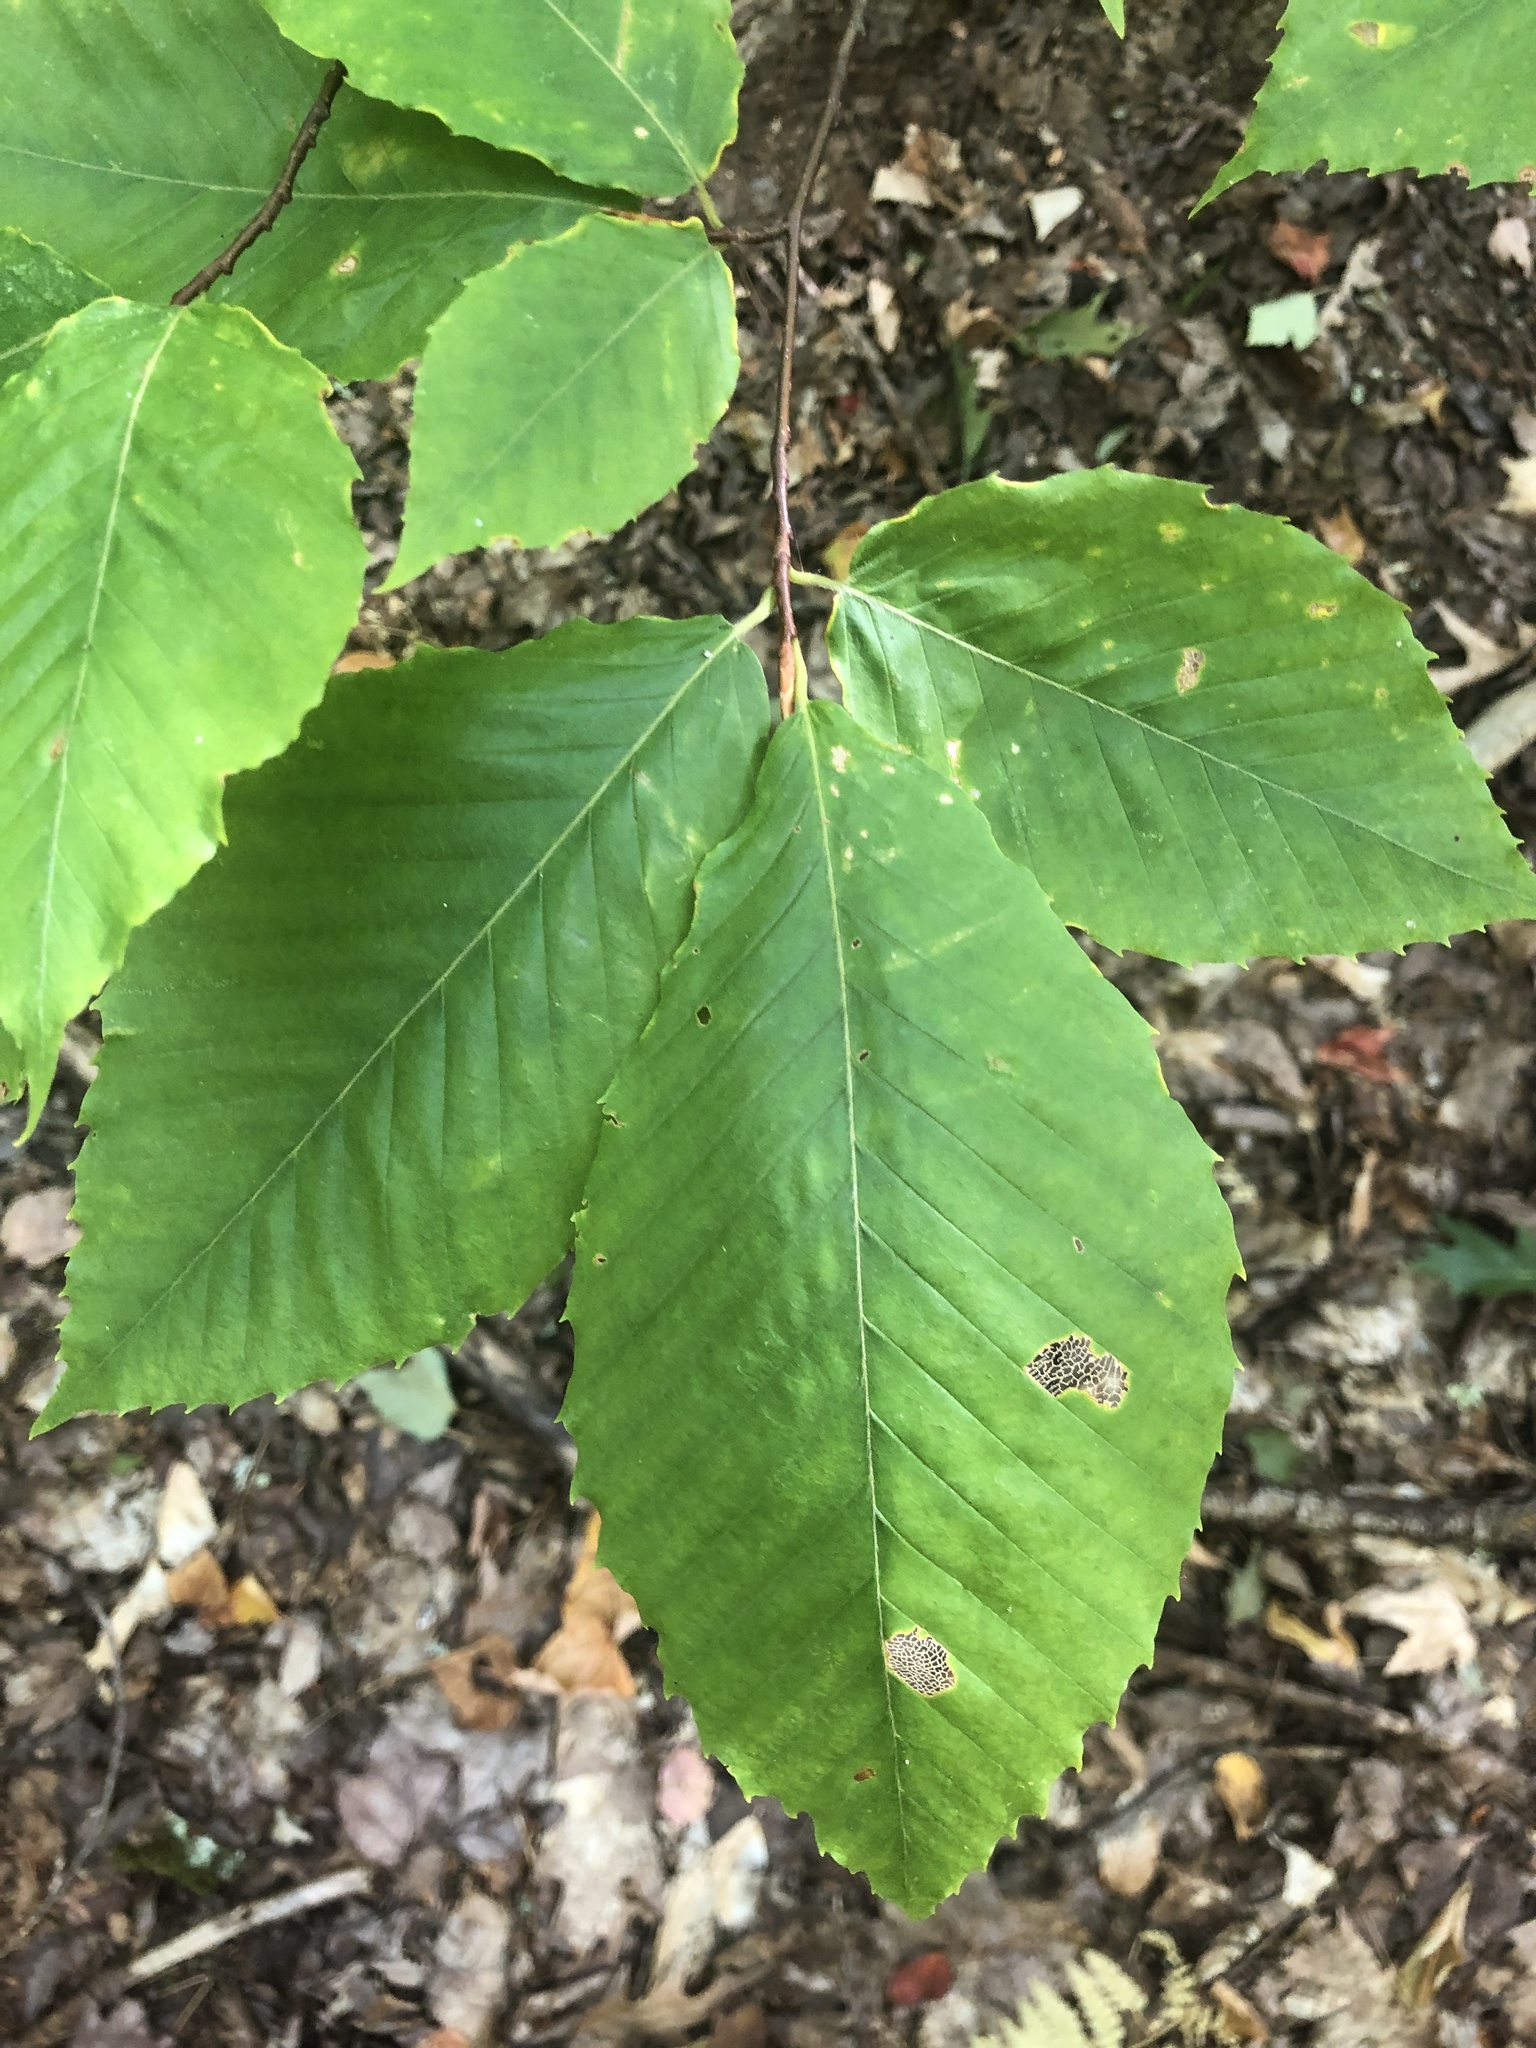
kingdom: Plantae
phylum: Tracheophyta
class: Magnoliopsida
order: Fagales
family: Fagaceae
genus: Fagus
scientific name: Fagus grandifolia
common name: American beech
